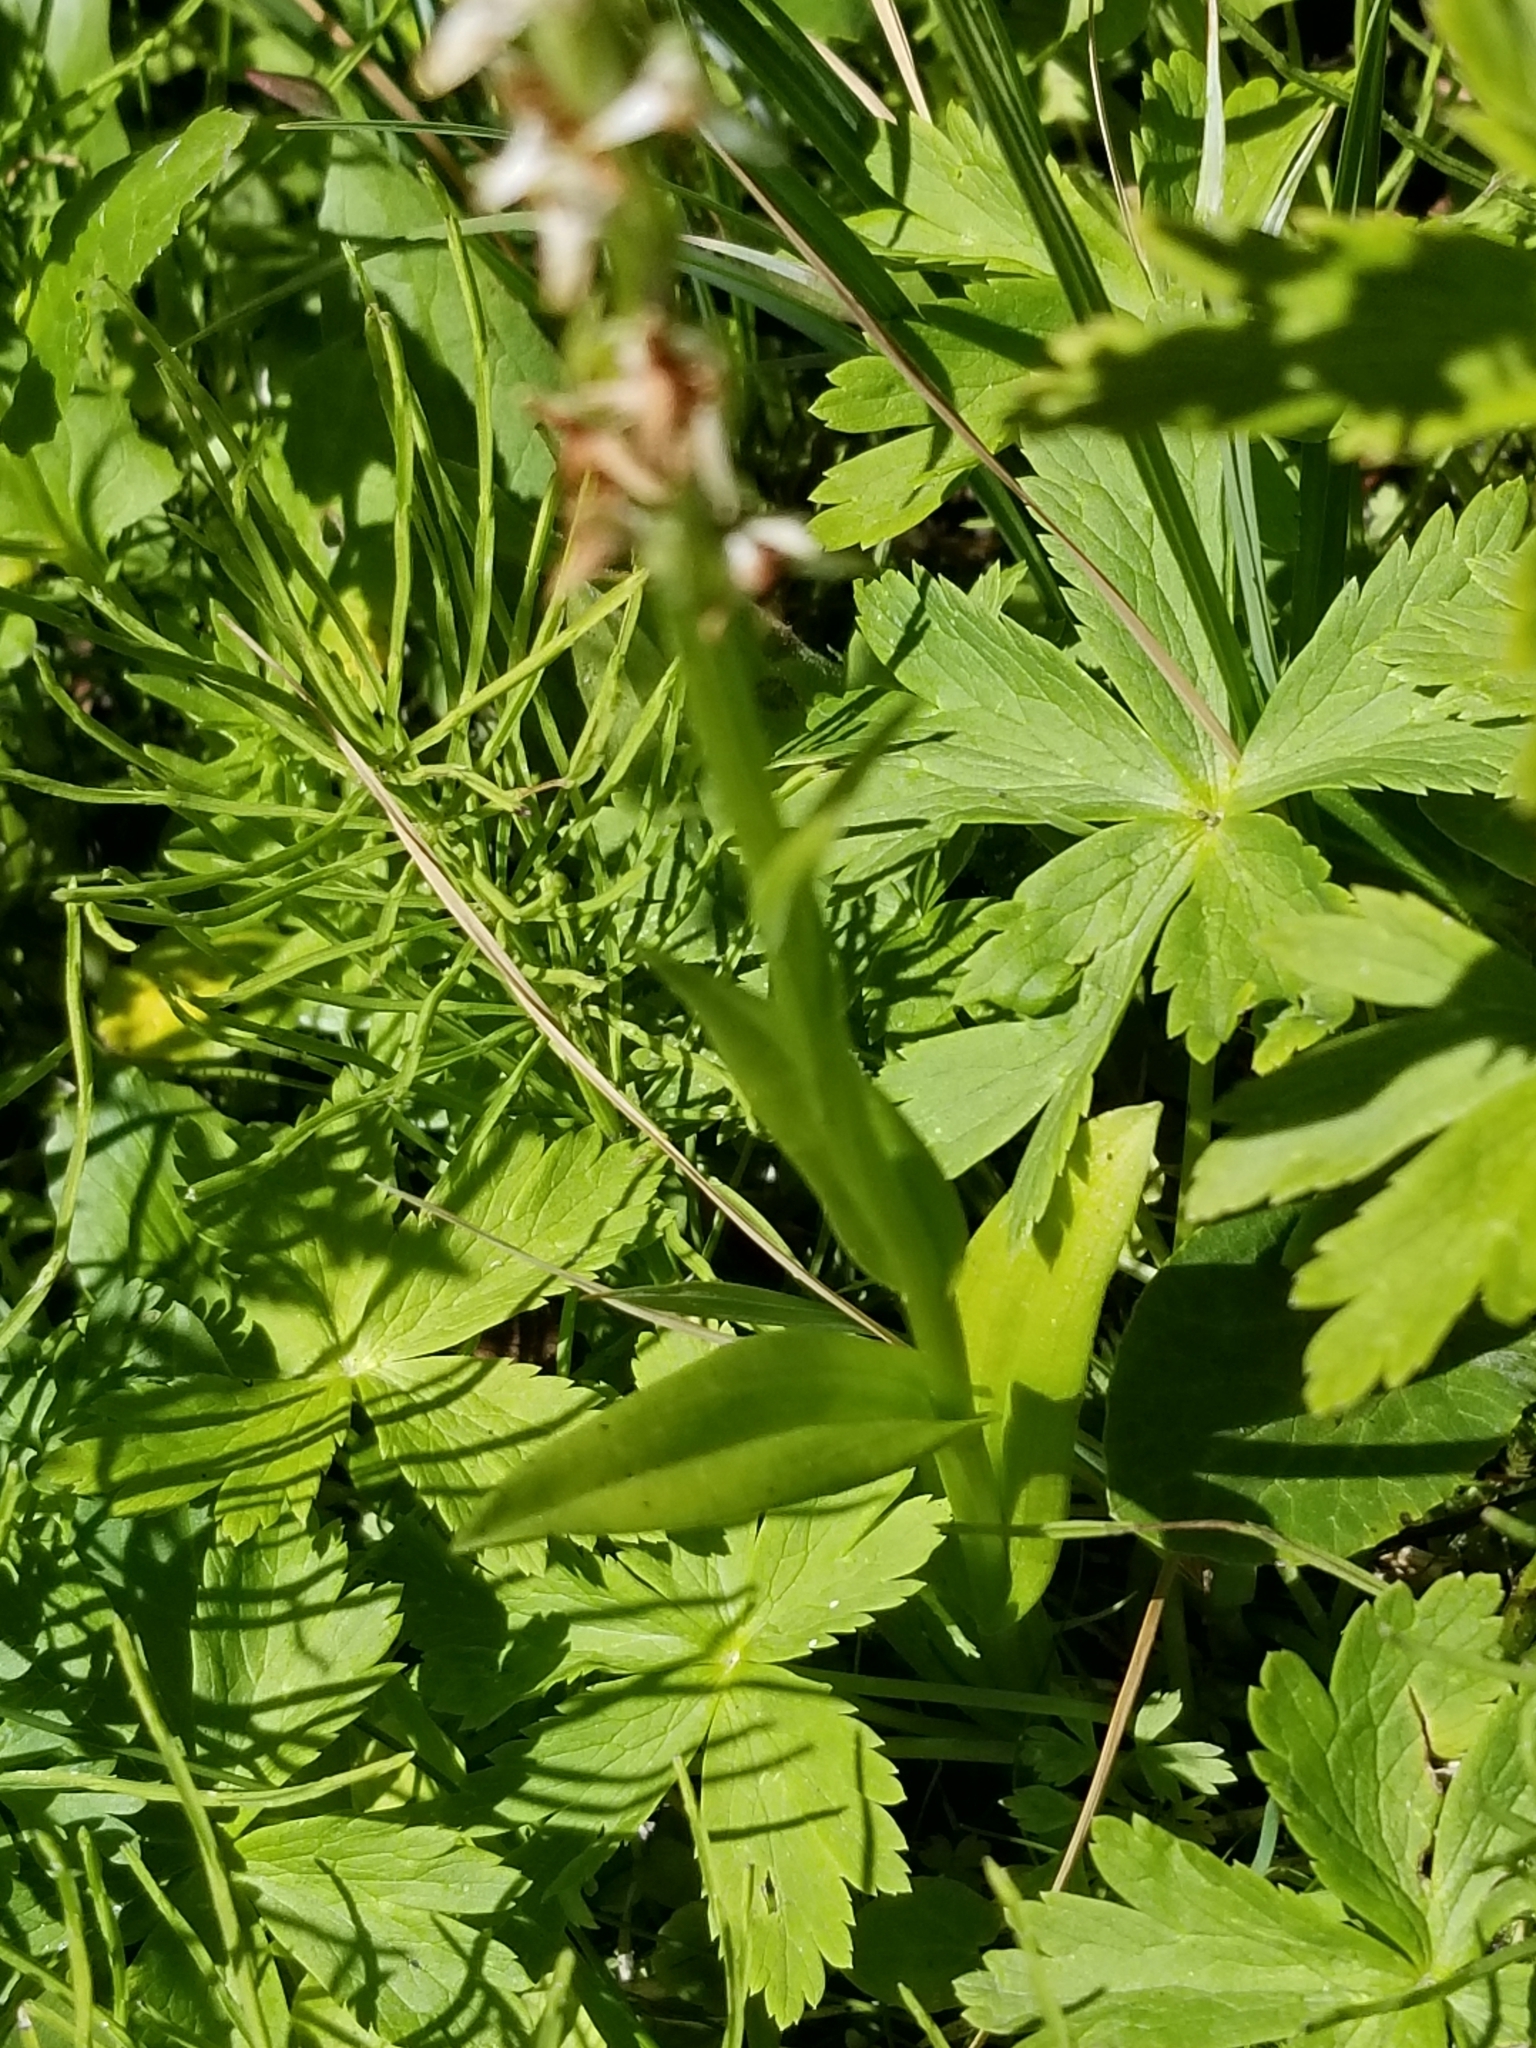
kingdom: Plantae
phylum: Tracheophyta
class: Liliopsida
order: Asparagales
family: Orchidaceae
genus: Platanthera
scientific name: Platanthera dilatata
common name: Bog candles
